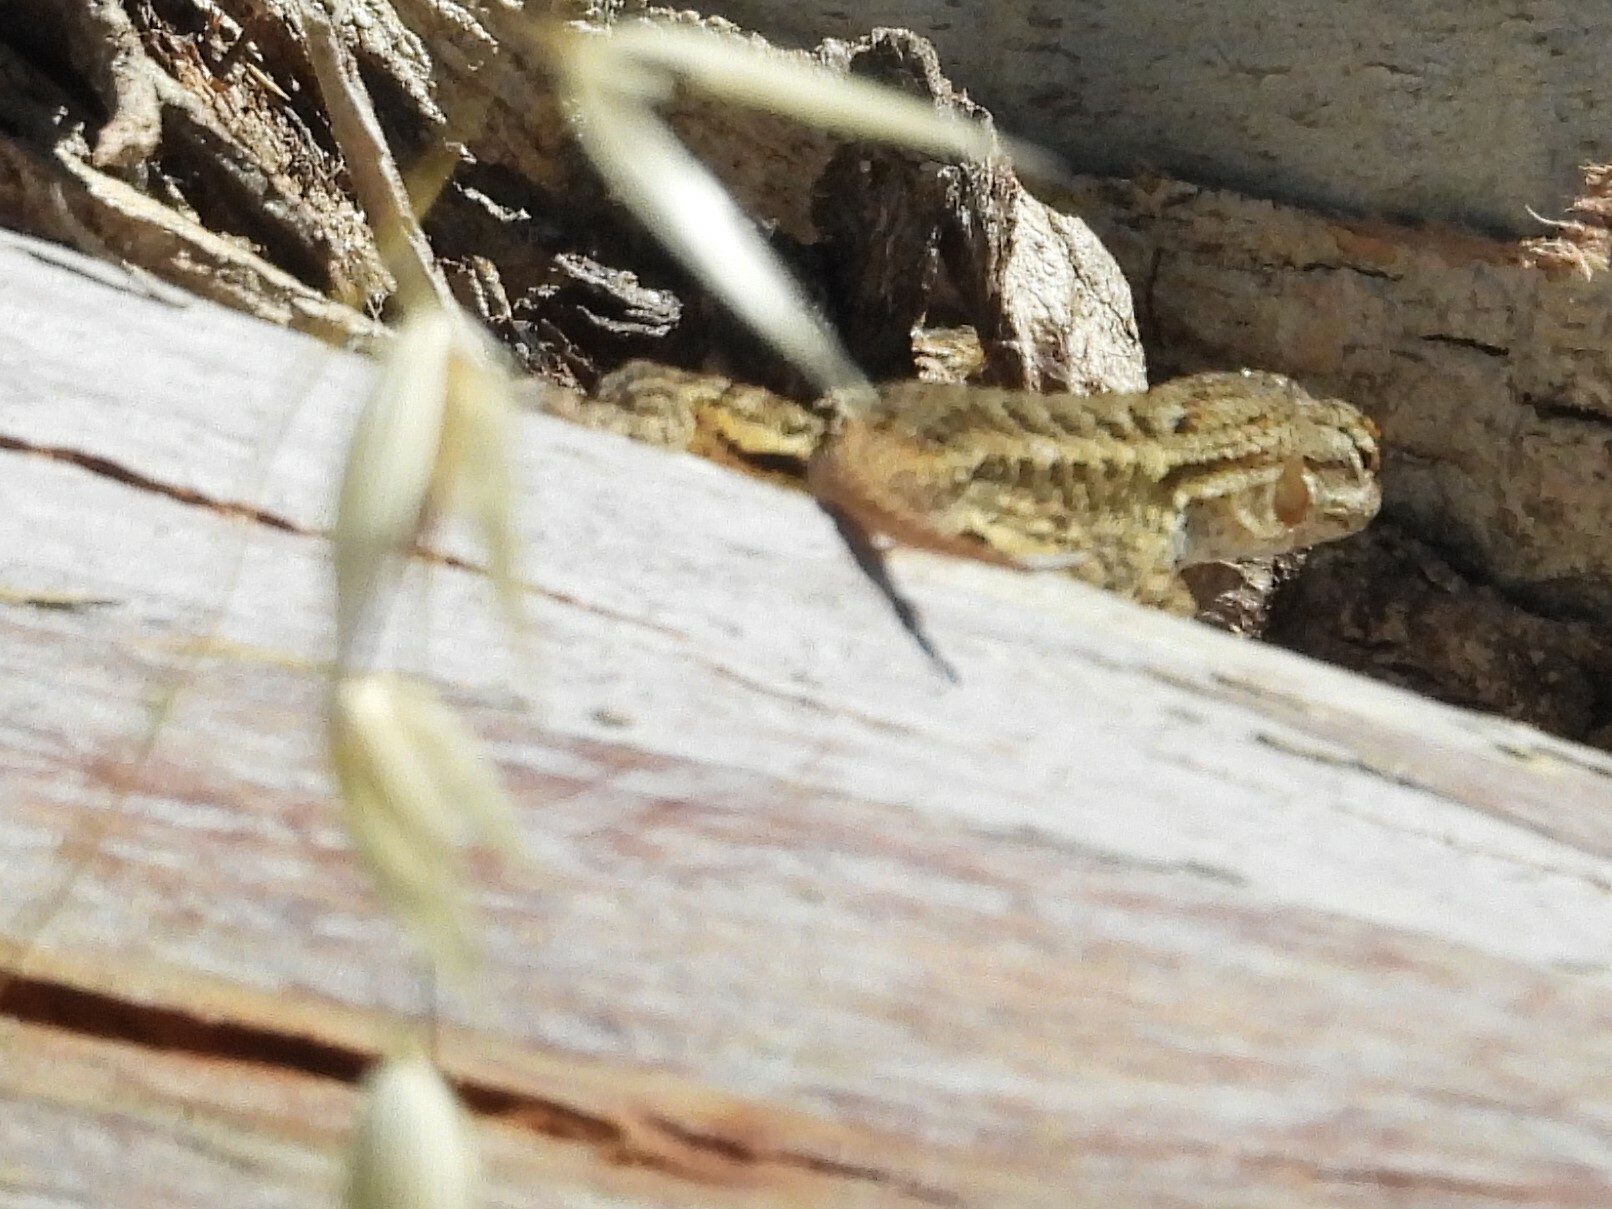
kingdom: Animalia
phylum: Chordata
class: Squamata
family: Phrynosomatidae
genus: Sceloporus
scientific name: Sceloporus occidentalis
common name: Western fence lizard
